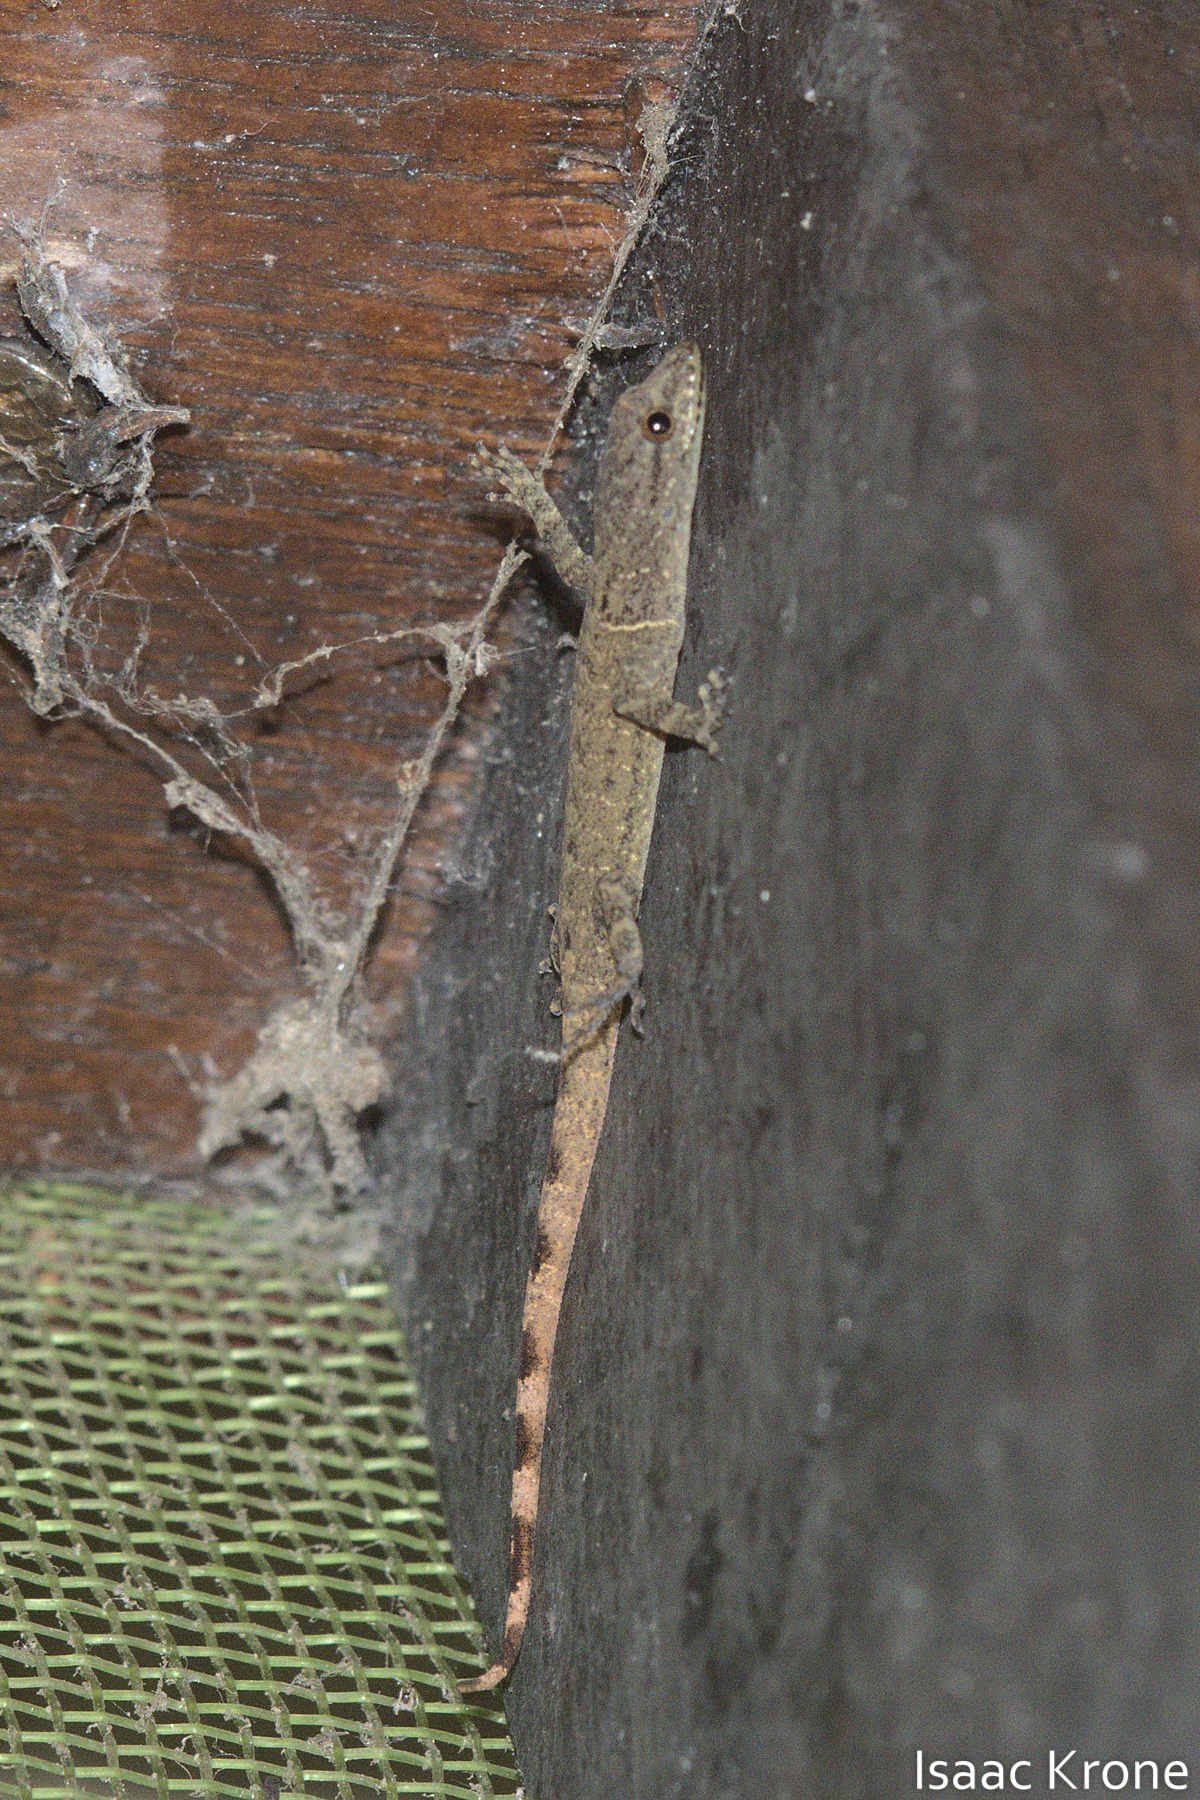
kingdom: Animalia
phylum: Chordata
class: Squamata
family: Sphaerodactylidae
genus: Gonatodes
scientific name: Gonatodes humeralis
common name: South american clawed gecko
